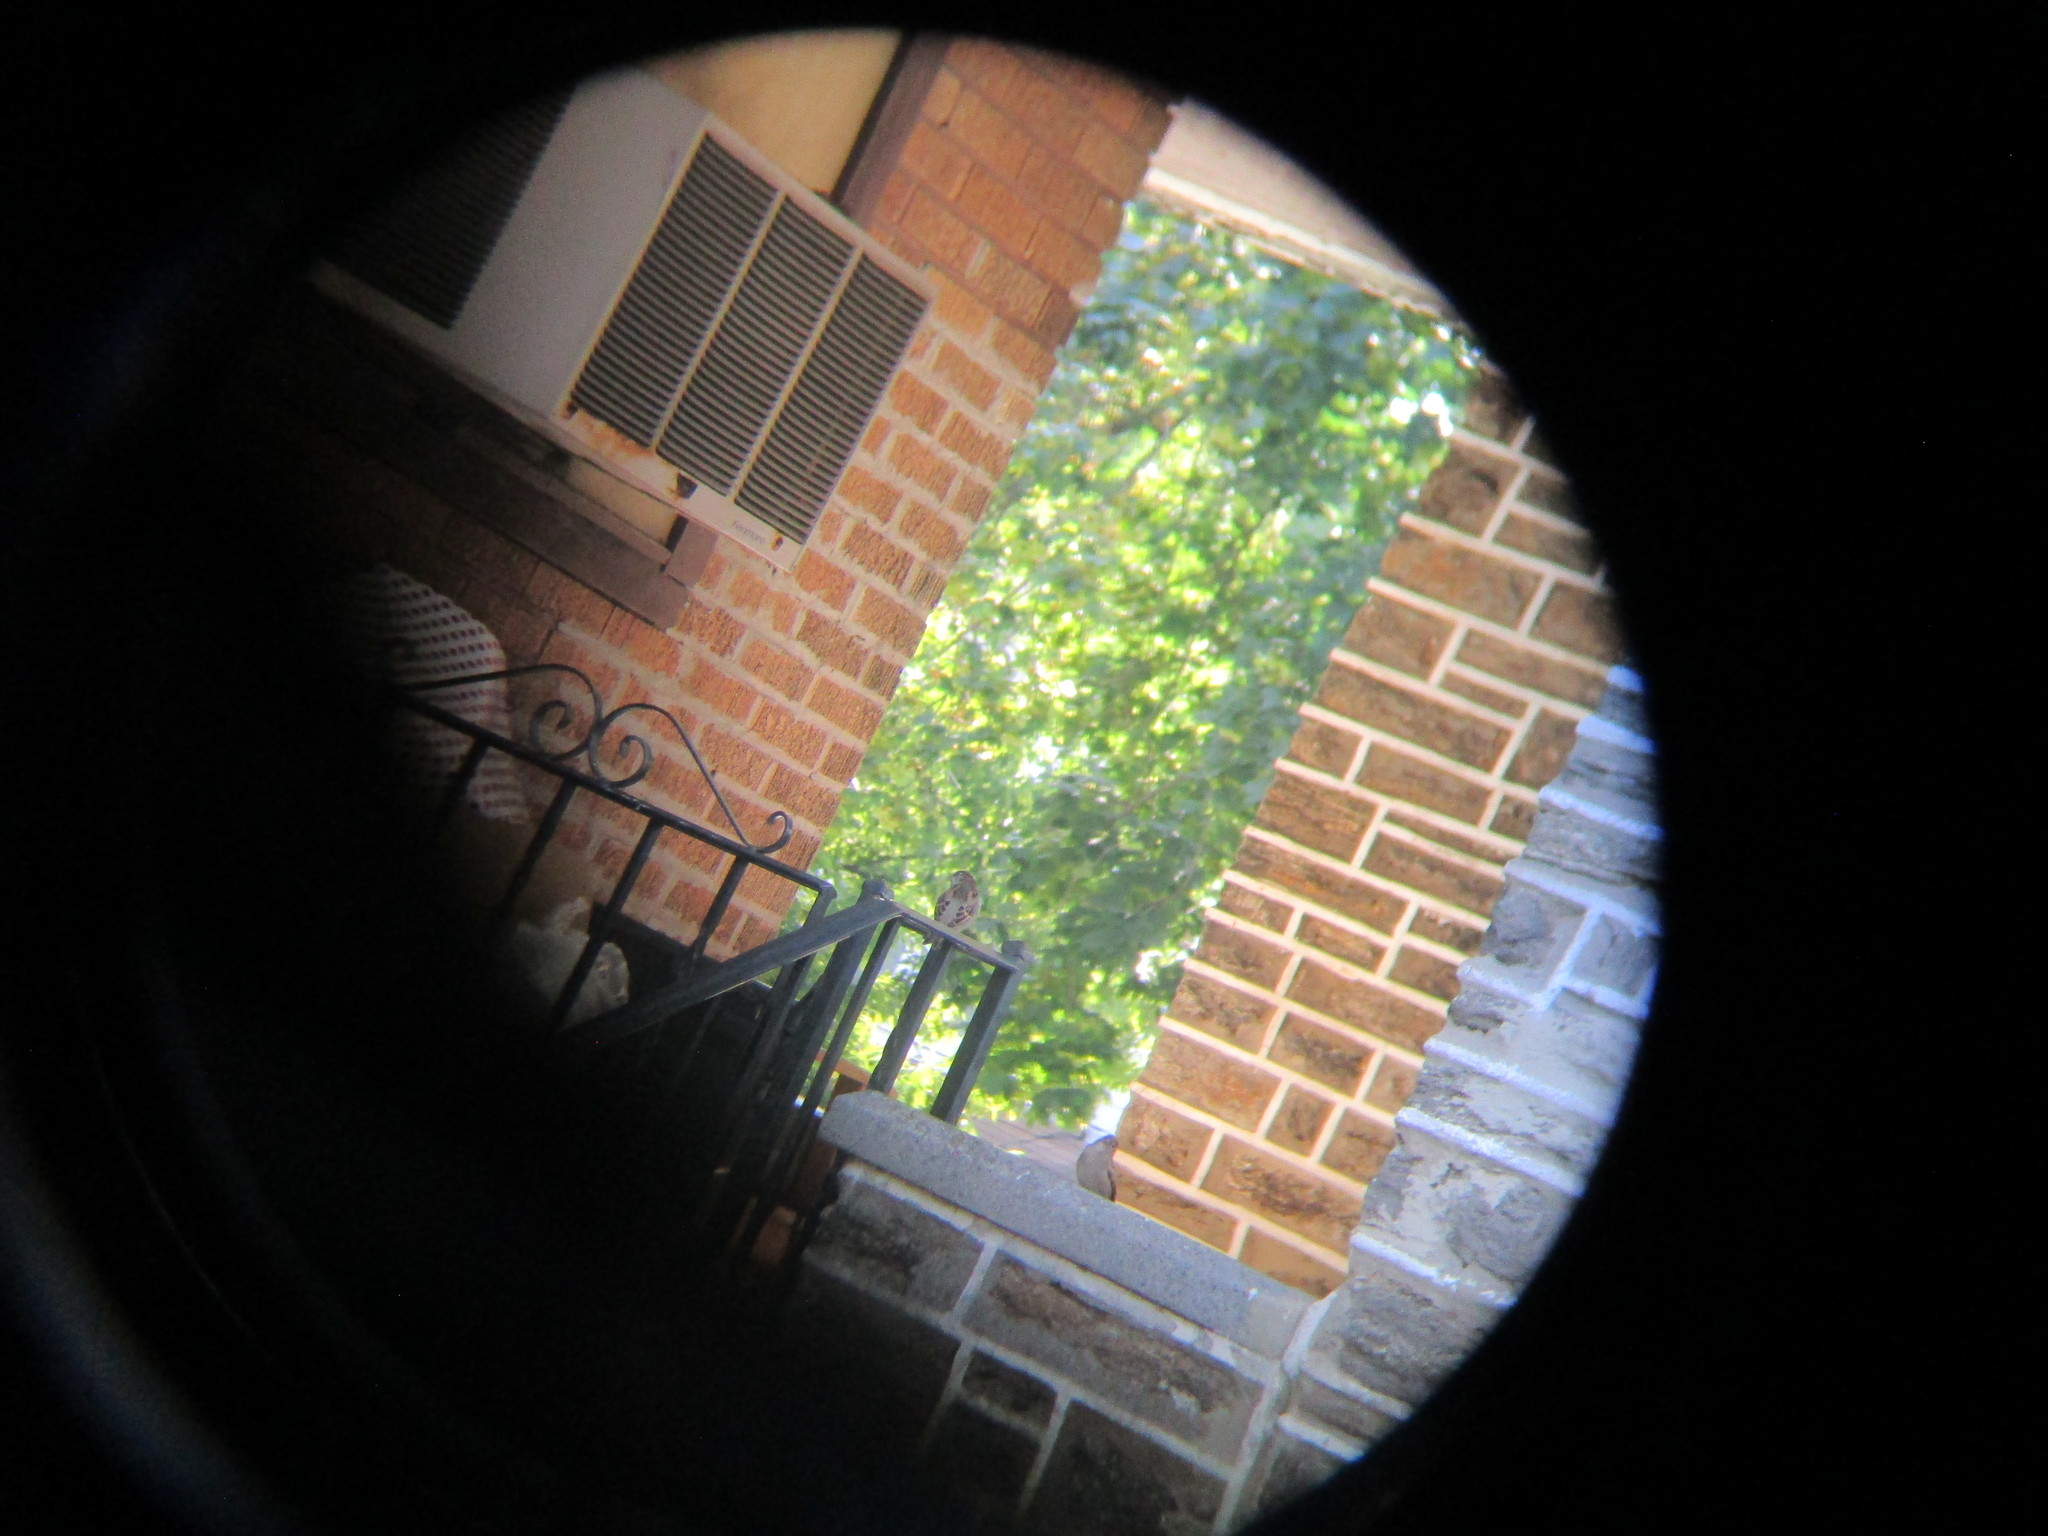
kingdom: Animalia
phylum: Chordata
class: Aves
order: Passeriformes
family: Passeridae
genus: Passer
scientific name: Passer domesticus
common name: House sparrow
